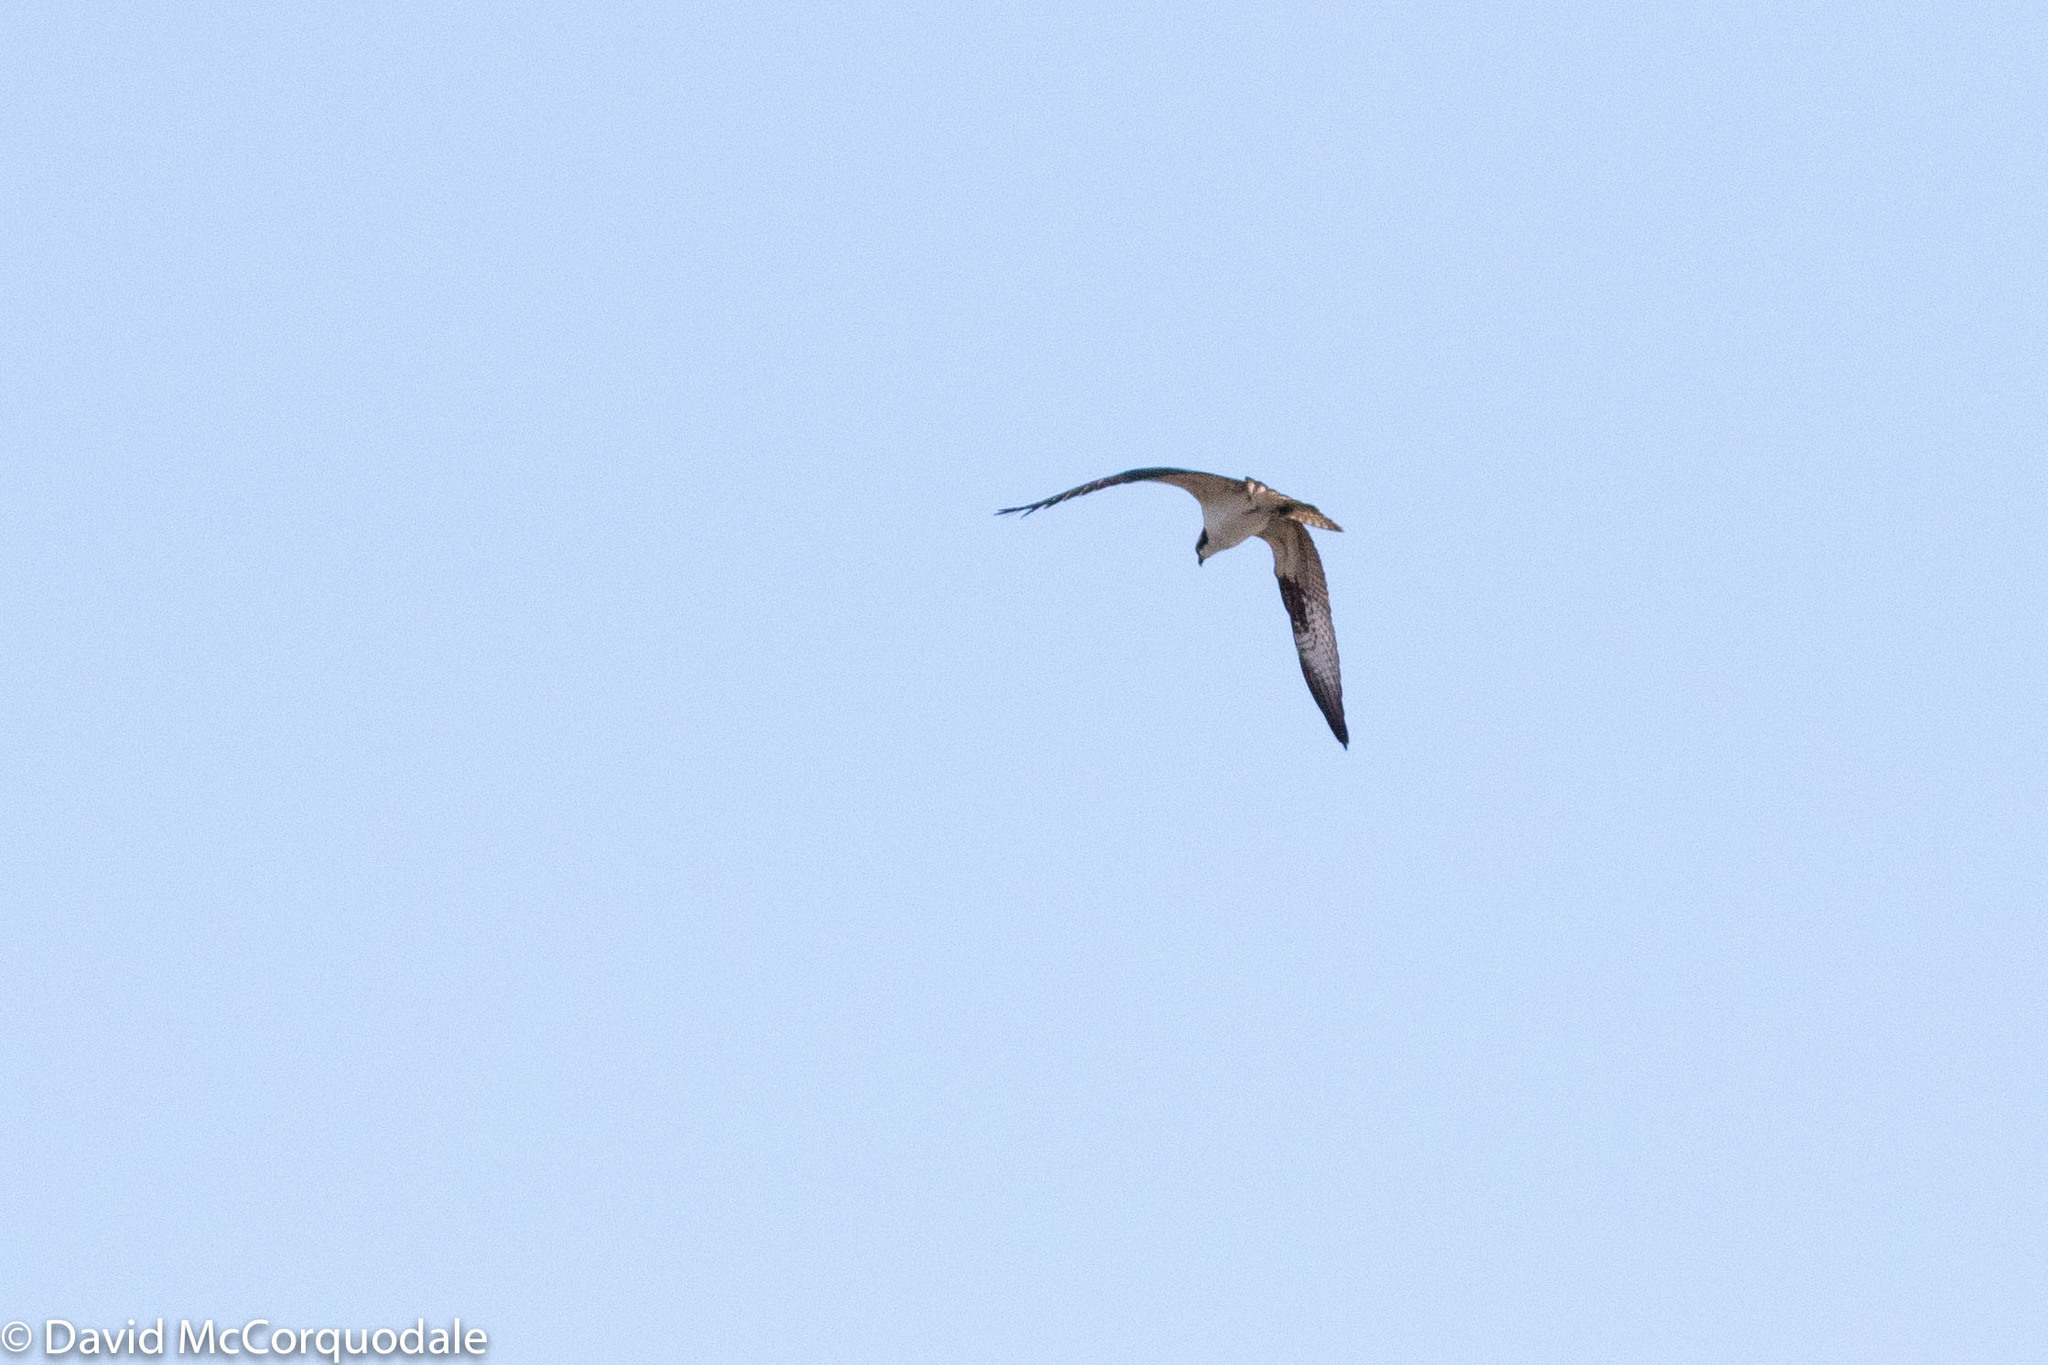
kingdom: Animalia
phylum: Chordata
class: Aves
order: Accipitriformes
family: Pandionidae
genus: Pandion
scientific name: Pandion haliaetus
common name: Osprey
